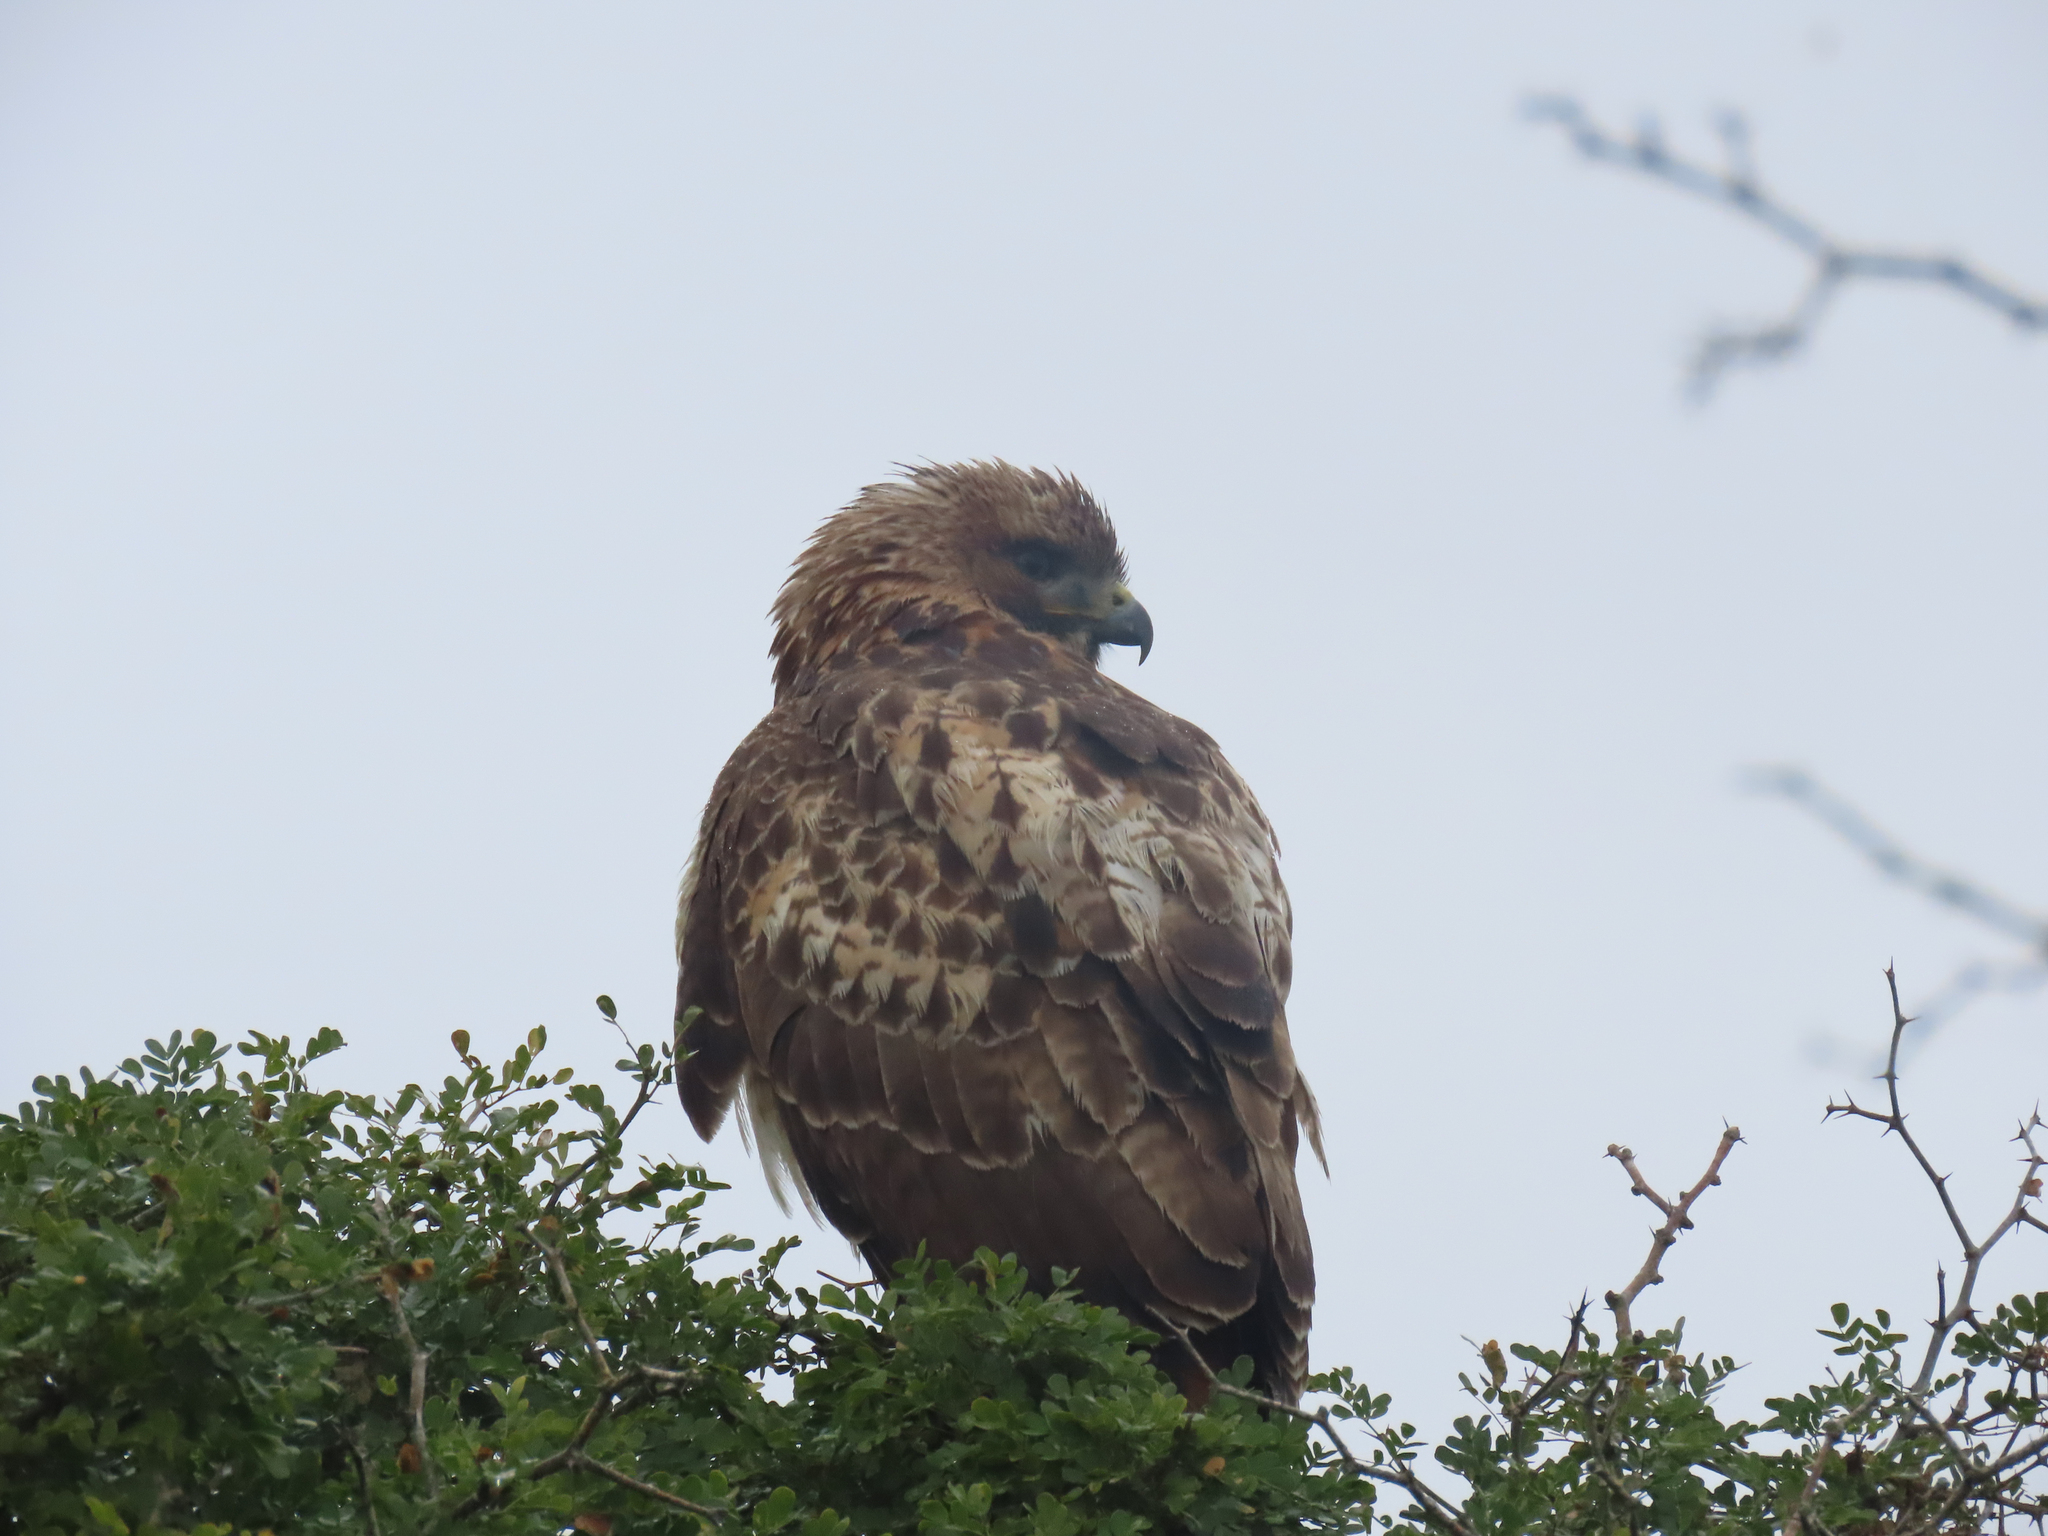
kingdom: Animalia
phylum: Chordata
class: Aves
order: Accipitriformes
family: Accipitridae
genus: Buteo
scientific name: Buteo jamaicensis
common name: Red-tailed hawk
